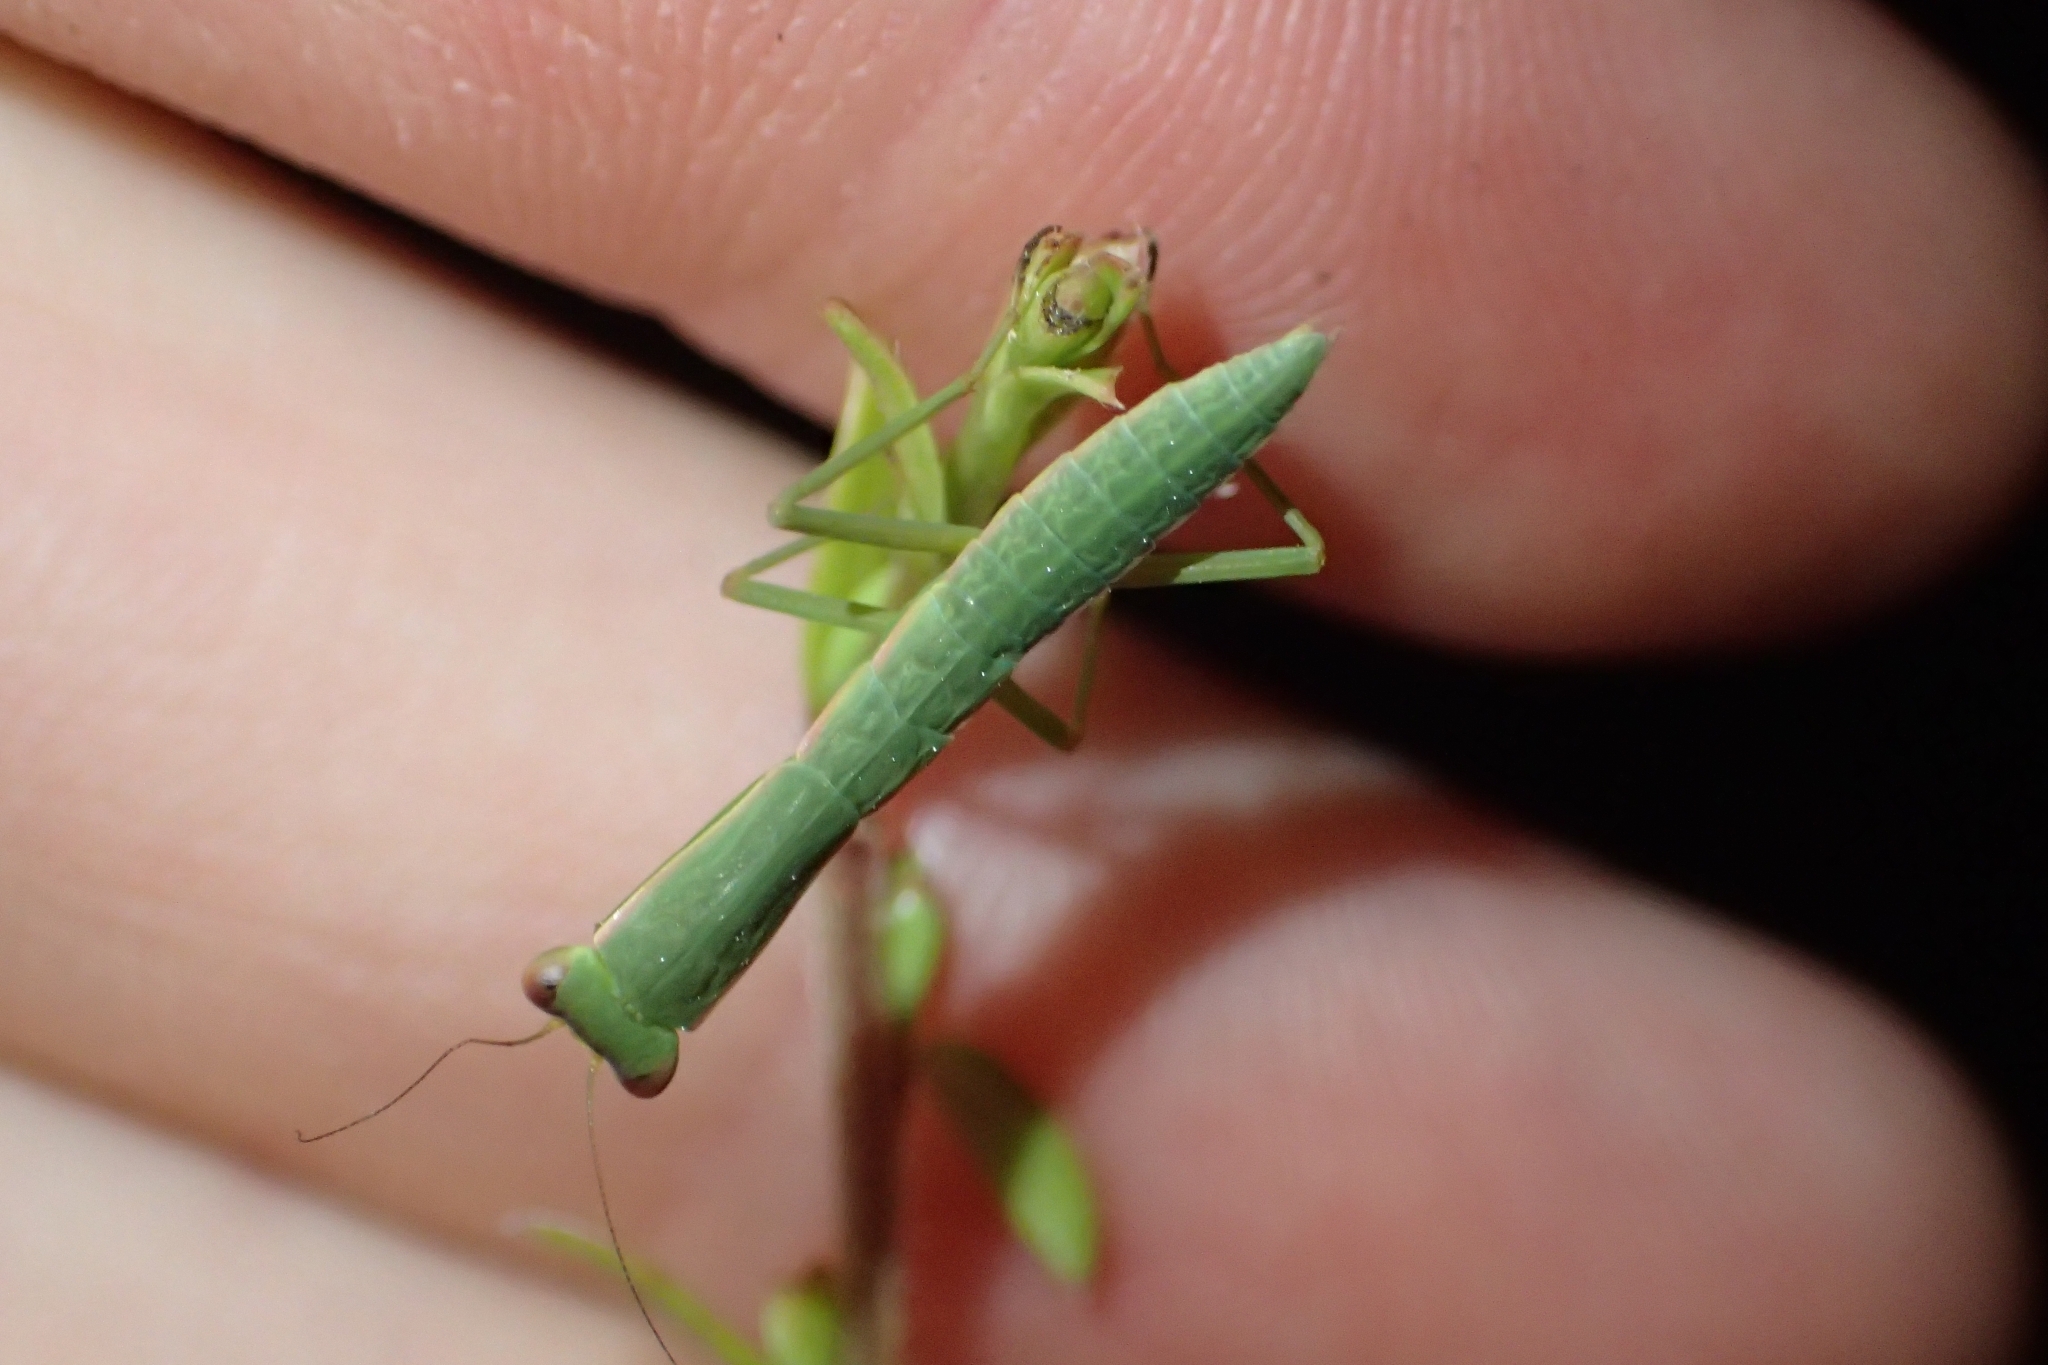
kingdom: Animalia
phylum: Arthropoda
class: Insecta
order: Mantodea
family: Mantidae
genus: Orthodera
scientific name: Orthodera novaezealandiae
